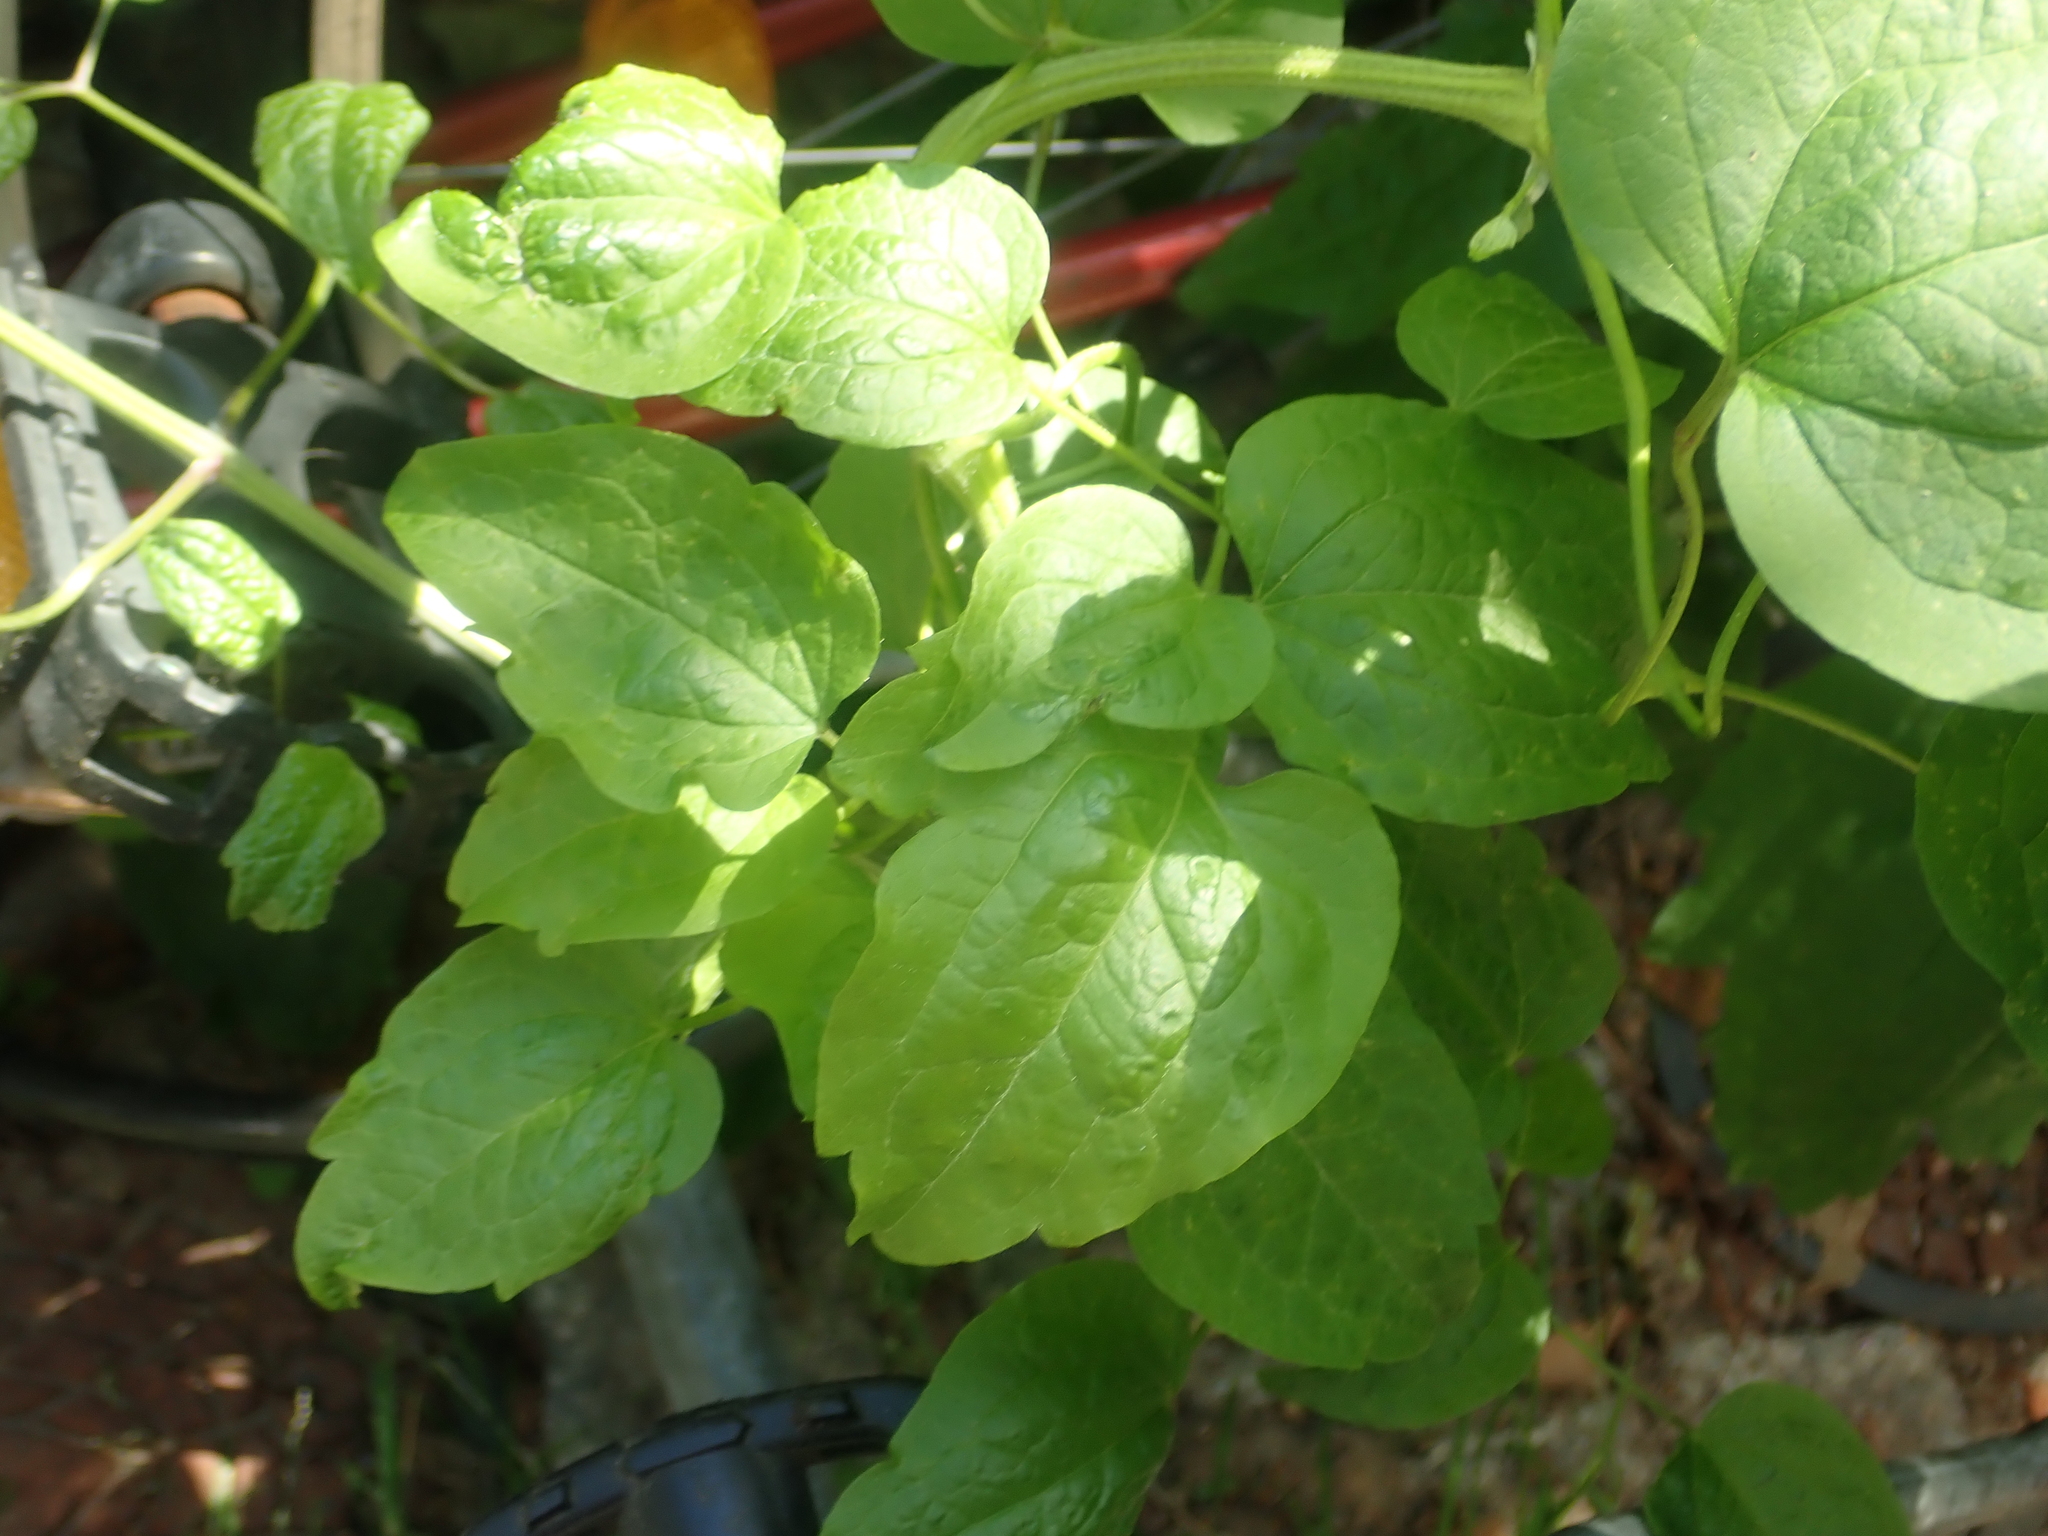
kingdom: Plantae
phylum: Tracheophyta
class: Magnoliopsida
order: Ranunculales
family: Ranunculaceae
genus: Clematis
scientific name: Clematis vitalba
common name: Evergreen clematis
